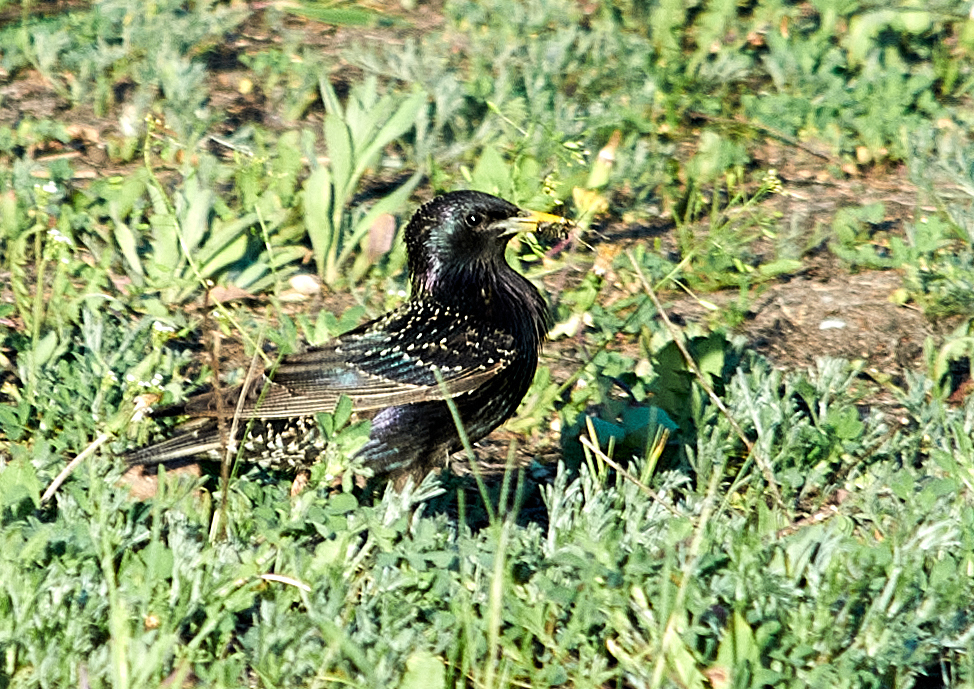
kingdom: Animalia
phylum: Chordata
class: Aves
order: Passeriformes
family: Sturnidae
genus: Sturnus
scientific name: Sturnus vulgaris
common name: Common starling
